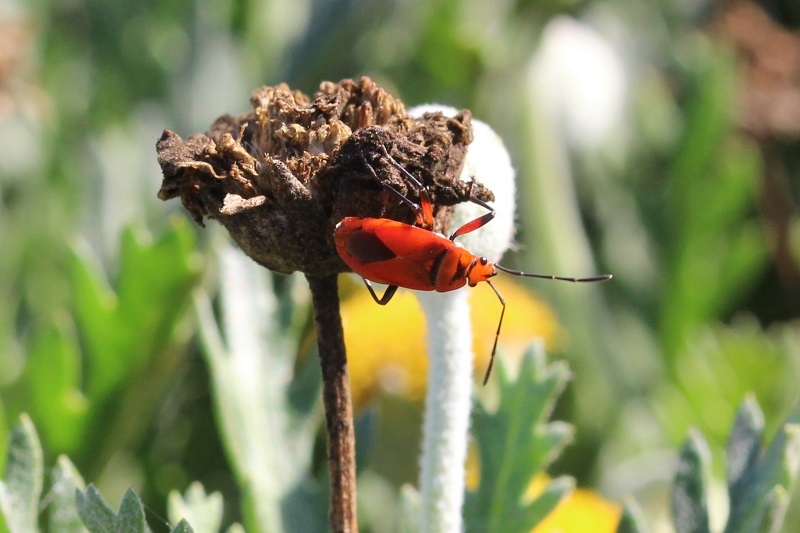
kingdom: Animalia
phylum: Arthropoda
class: Insecta
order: Hemiptera
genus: Cenaeus
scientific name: Cenaeus
